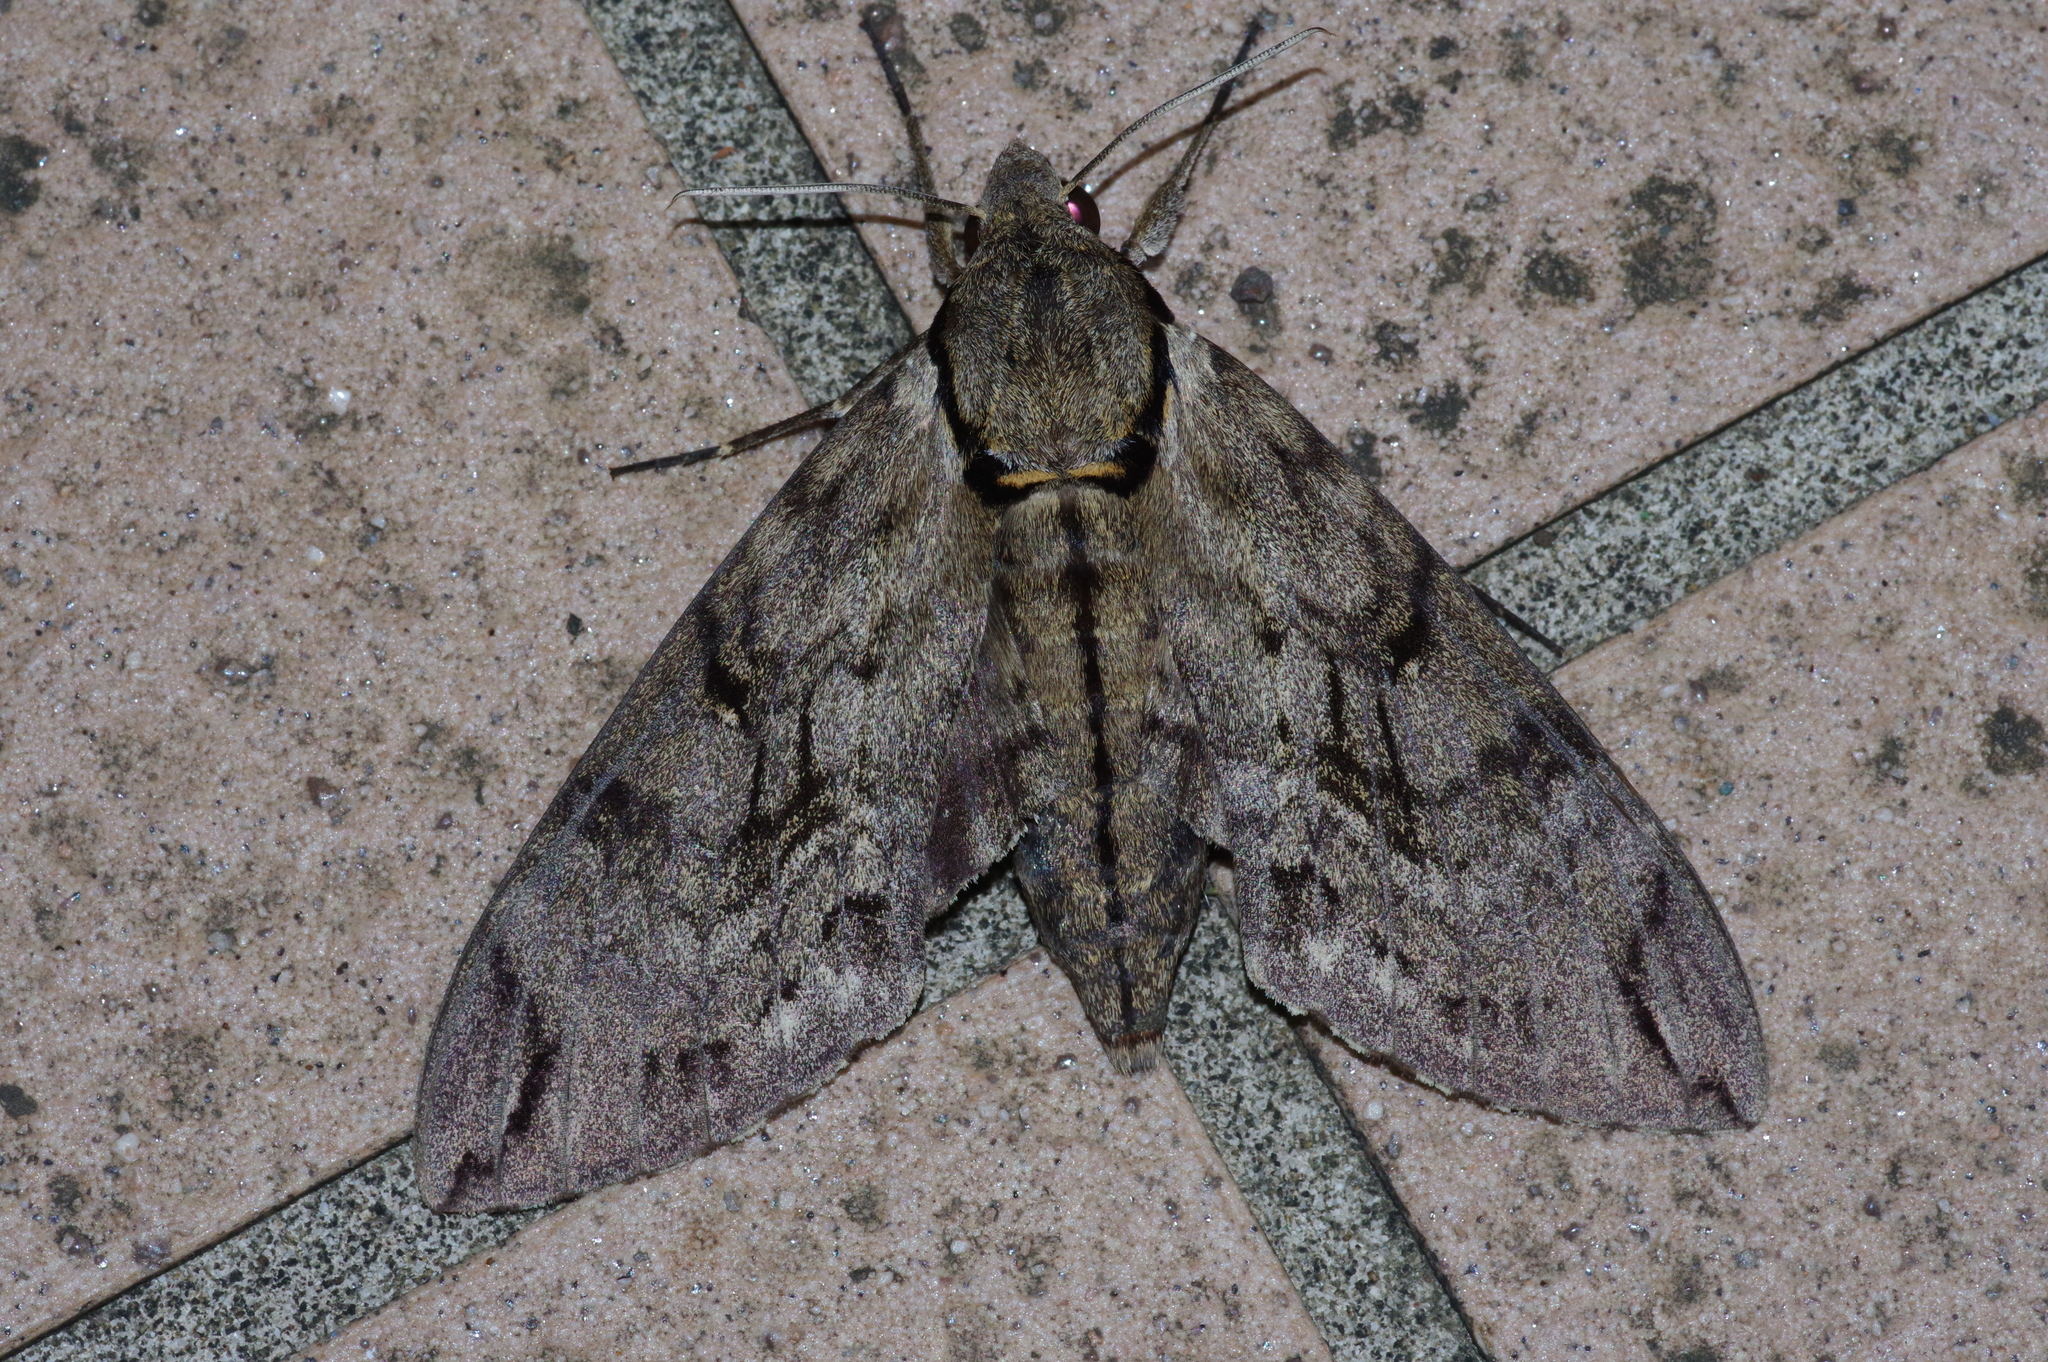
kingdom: Animalia
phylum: Arthropoda
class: Insecta
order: Lepidoptera
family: Sphingidae
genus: Psilogramma
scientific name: Psilogramma increta
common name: Gray hawk moth
